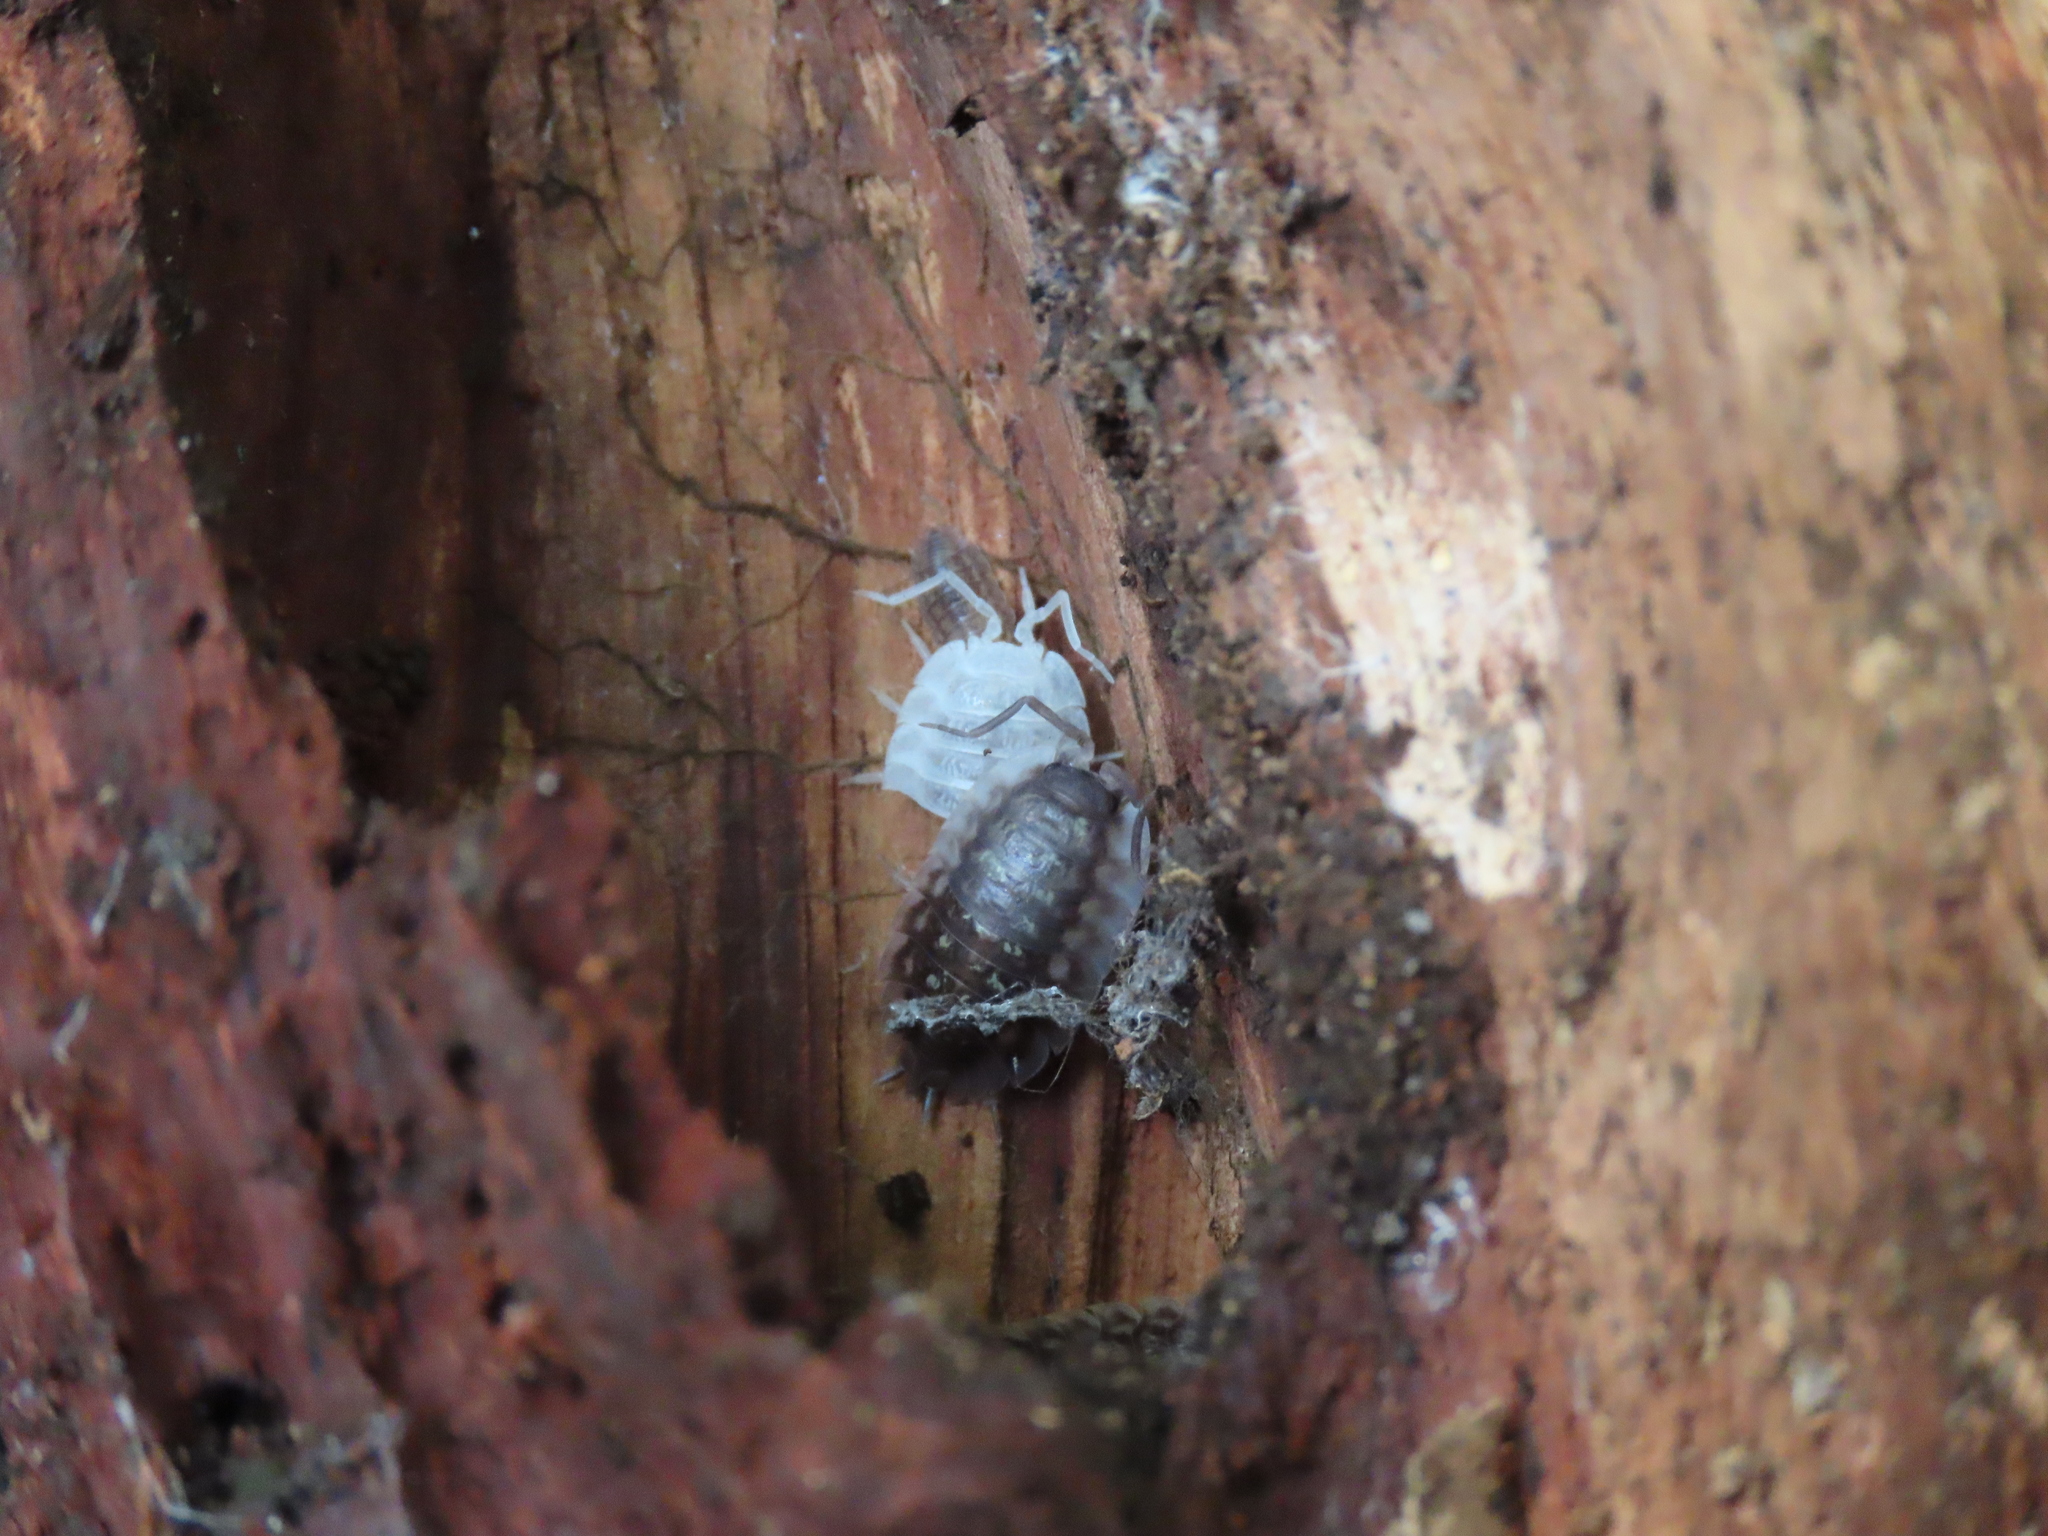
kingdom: Animalia
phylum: Arthropoda
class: Malacostraca
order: Isopoda
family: Oniscidae
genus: Oniscus
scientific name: Oniscus asellus
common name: Common shiny woodlouse
